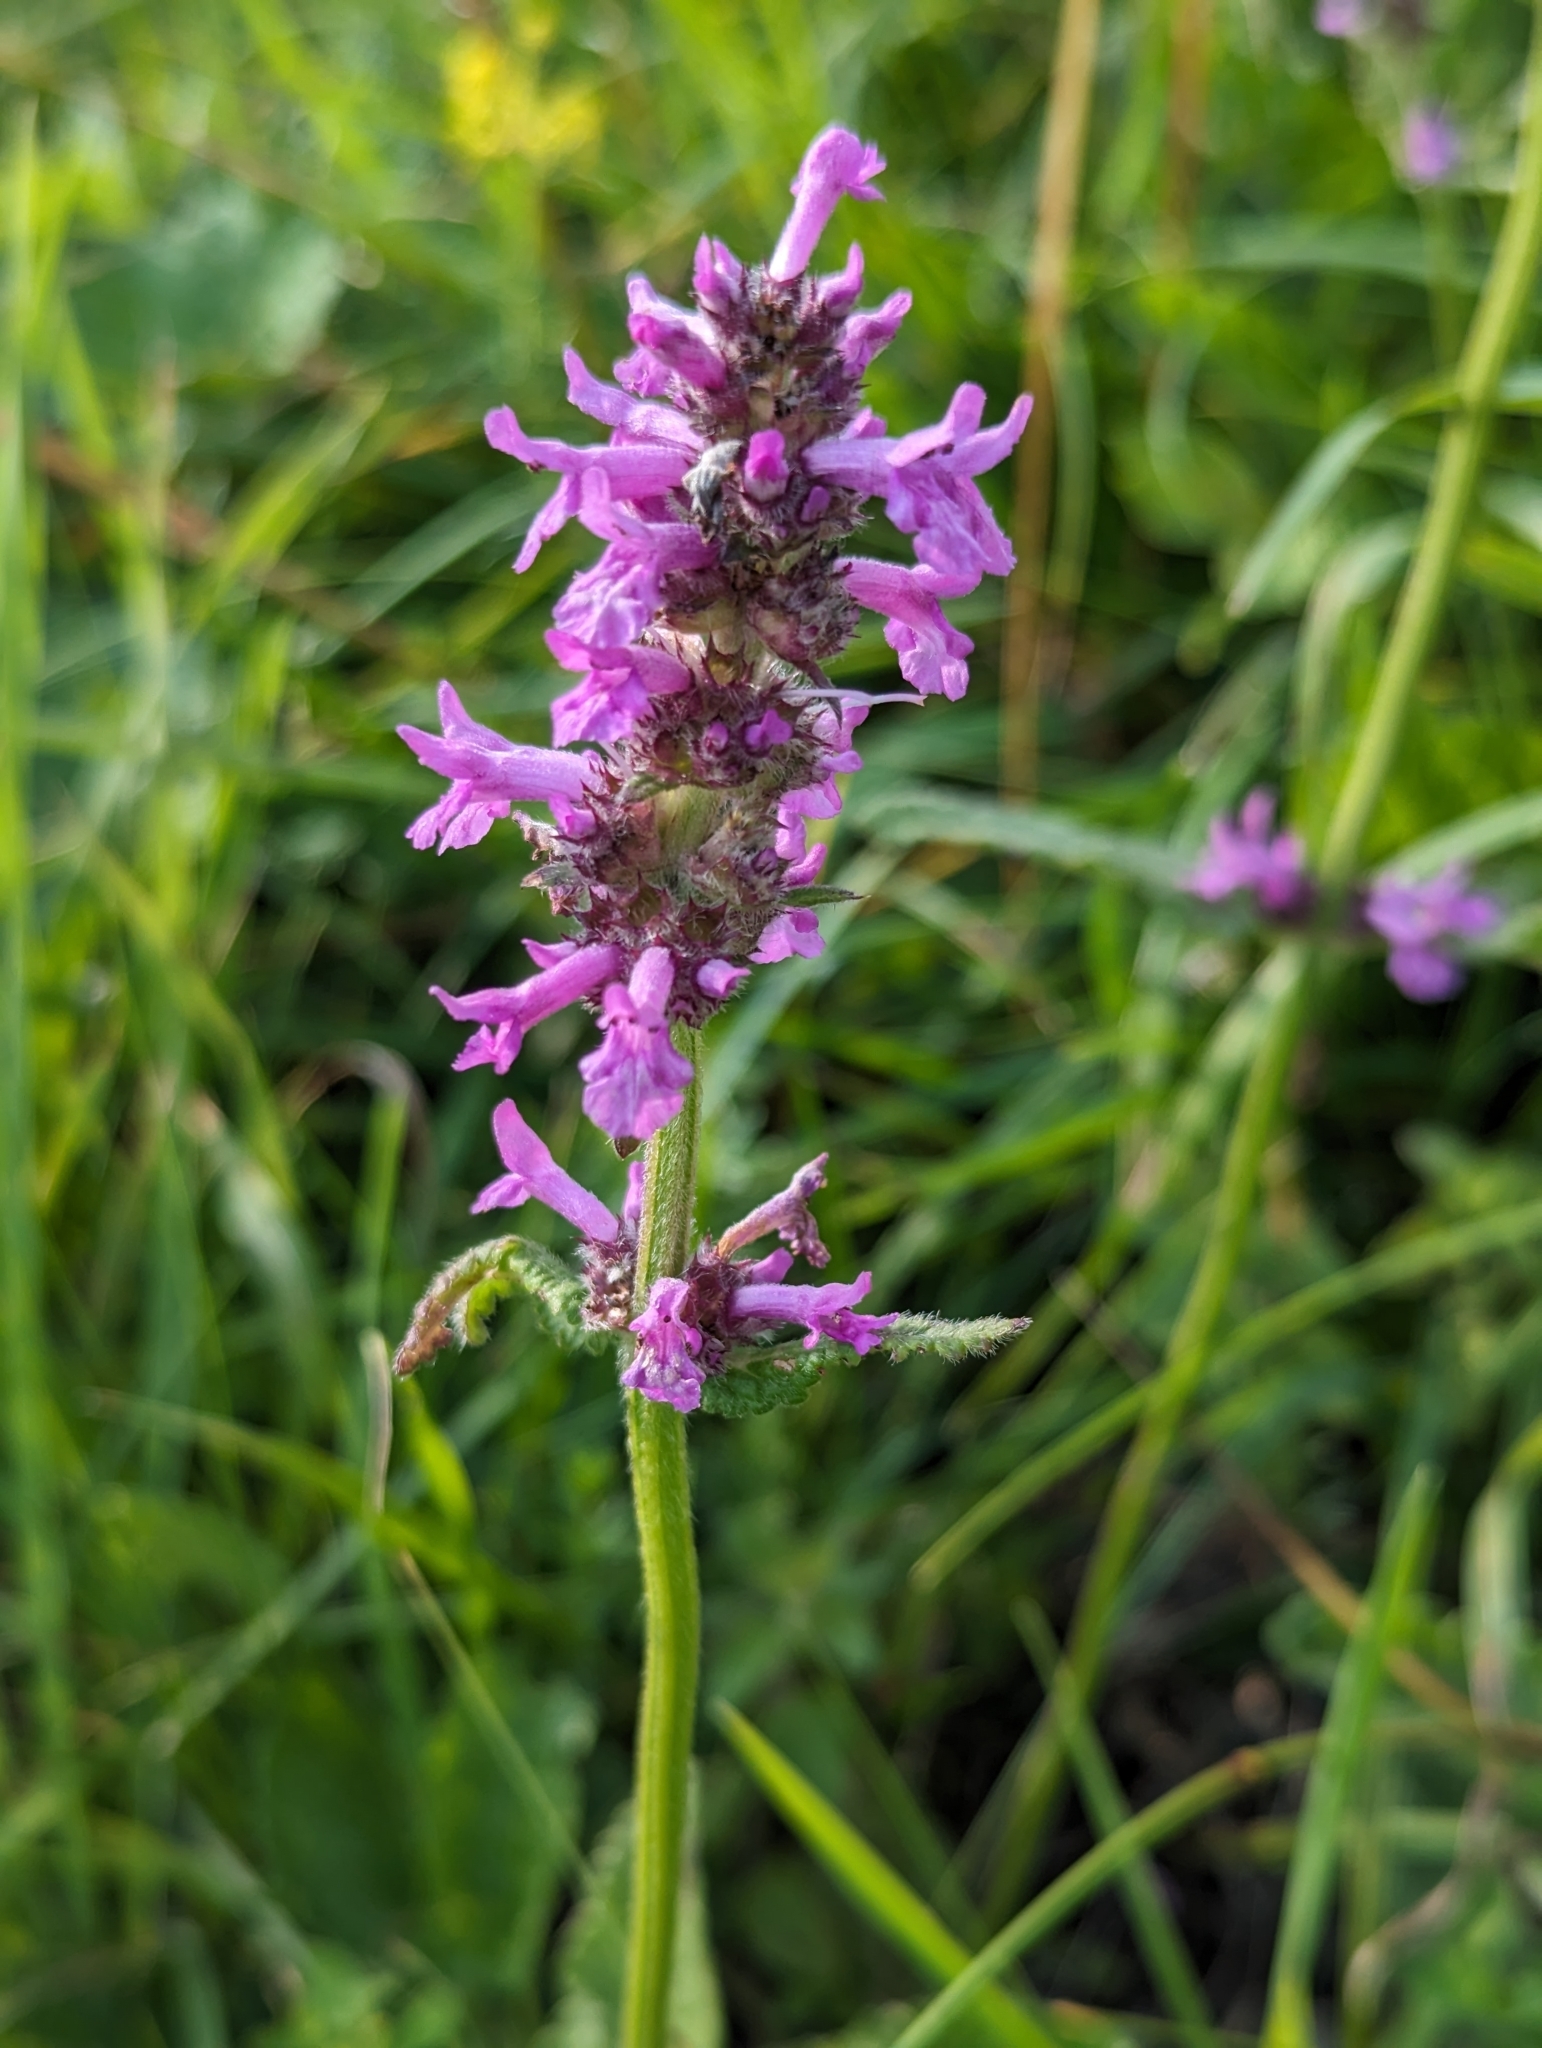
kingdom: Plantae
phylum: Tracheophyta
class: Magnoliopsida
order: Lamiales
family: Lamiaceae
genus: Betonica
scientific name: Betonica officinalis
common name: Bishop's-wort
